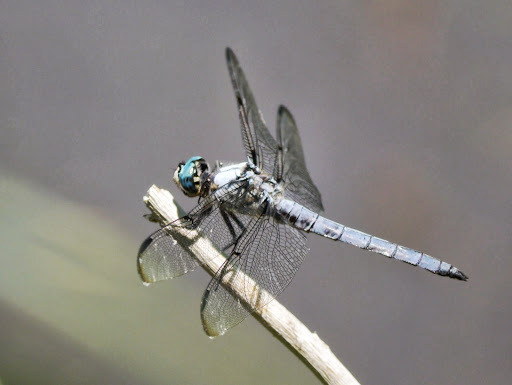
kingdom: Animalia
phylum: Arthropoda
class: Insecta
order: Odonata
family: Libellulidae
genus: Libellula
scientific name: Libellula vibrans
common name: Great blue skimmer
